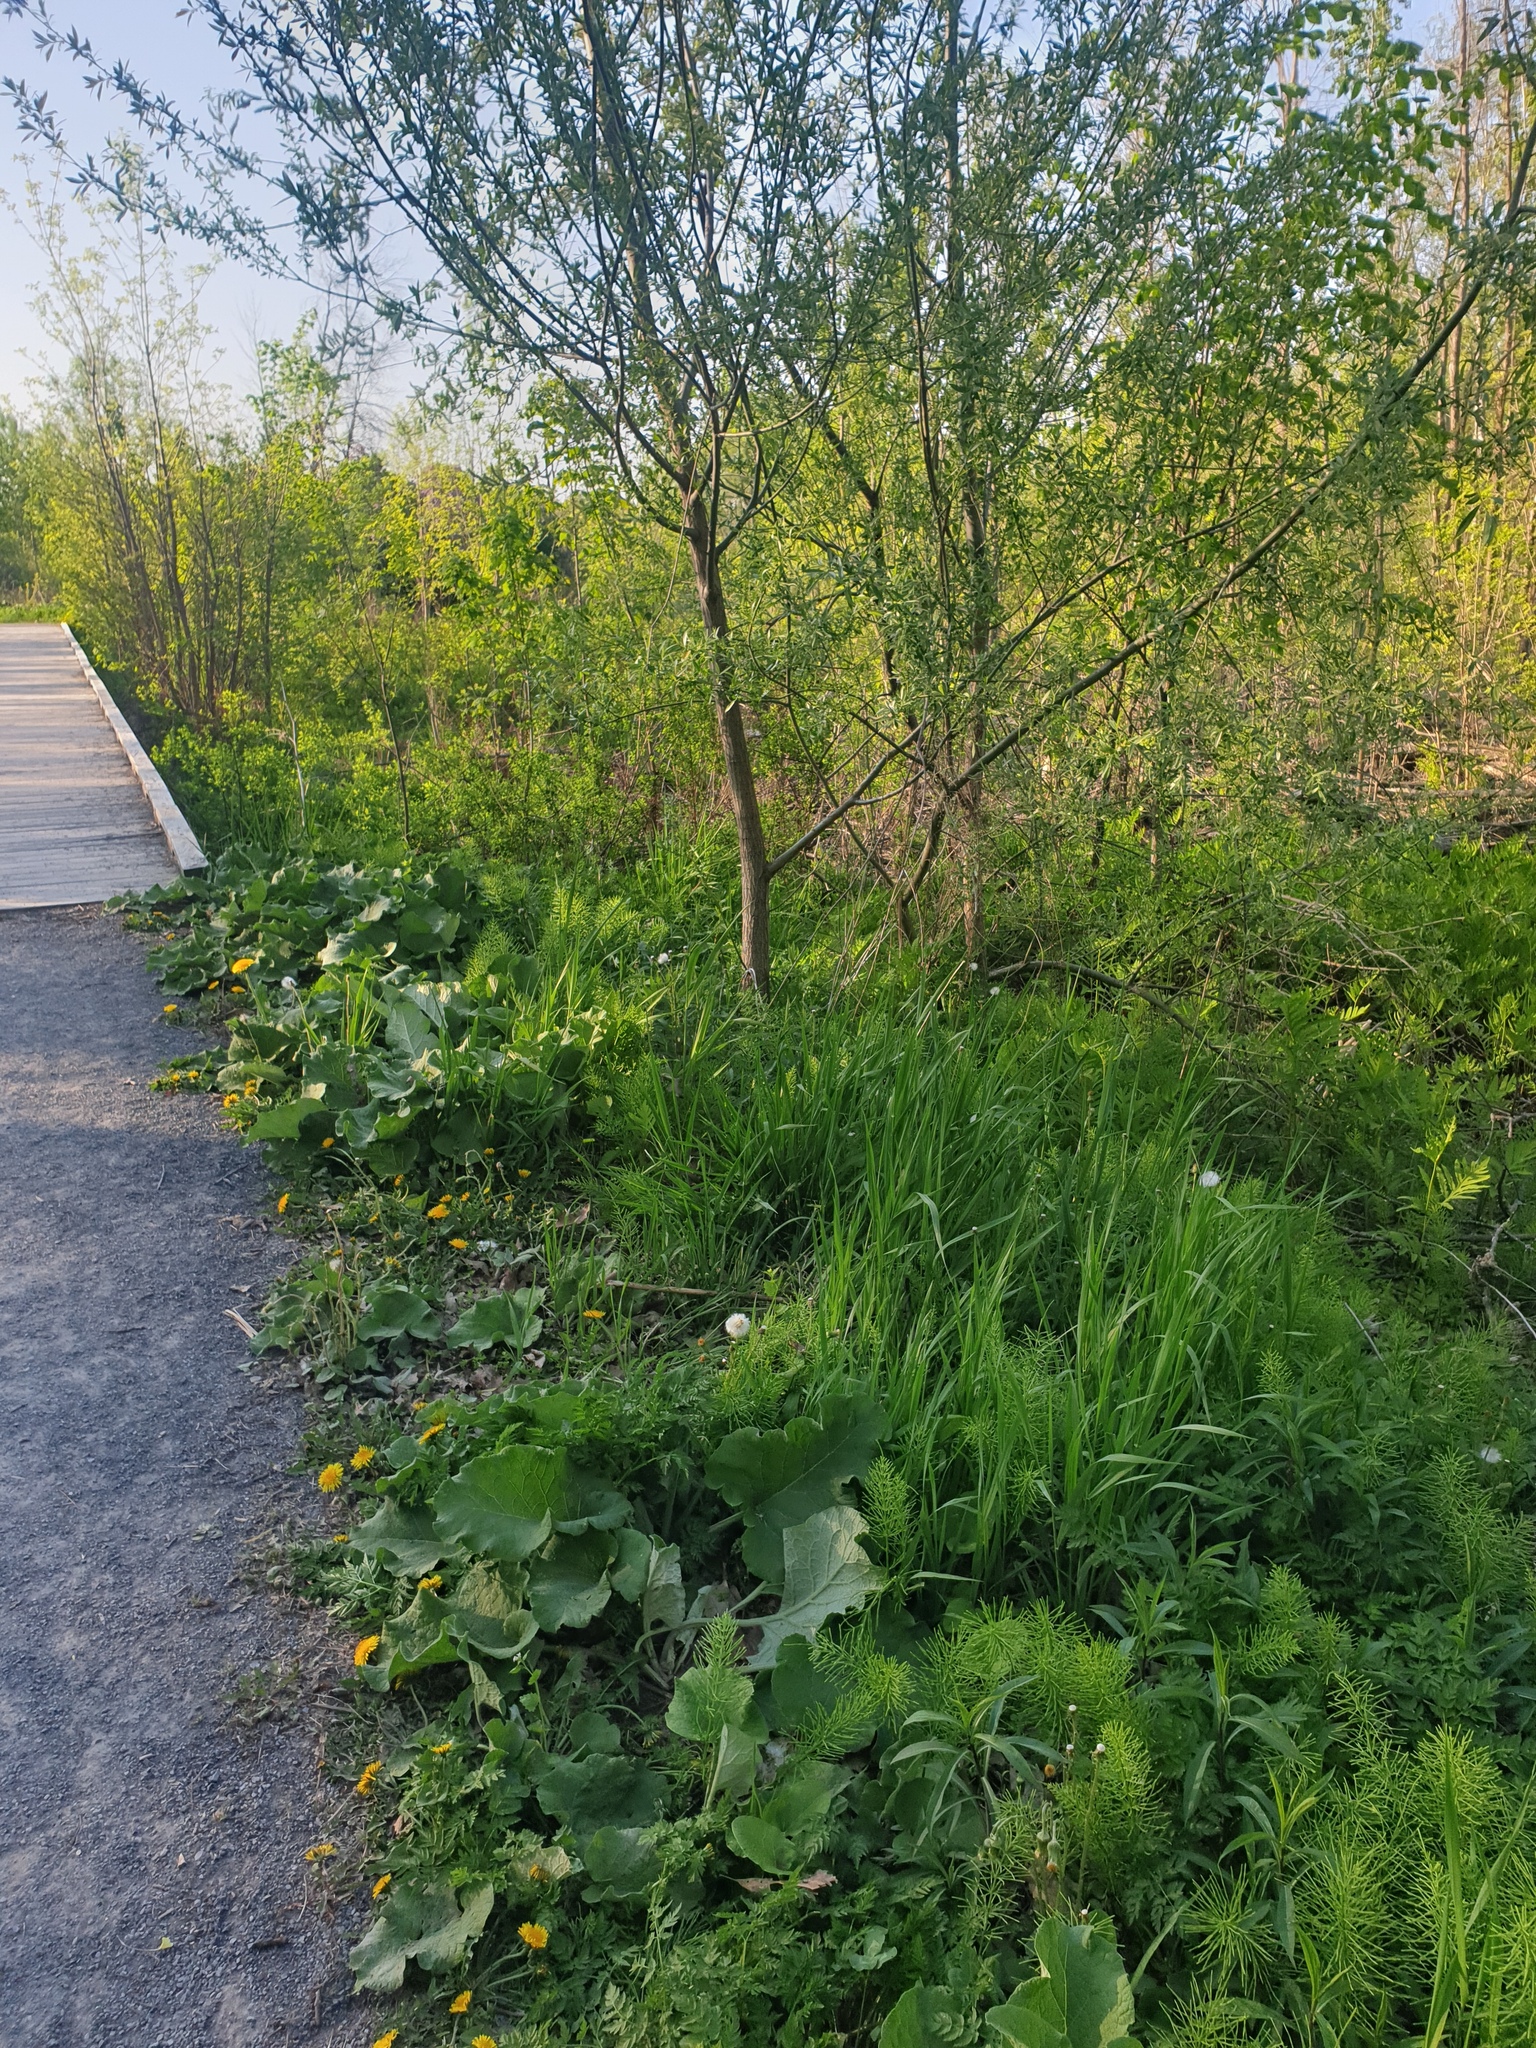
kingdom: Plantae
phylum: Tracheophyta
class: Magnoliopsida
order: Brassicales
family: Brassicaceae
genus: Alliaria
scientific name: Alliaria petiolata
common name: Garlic mustard
